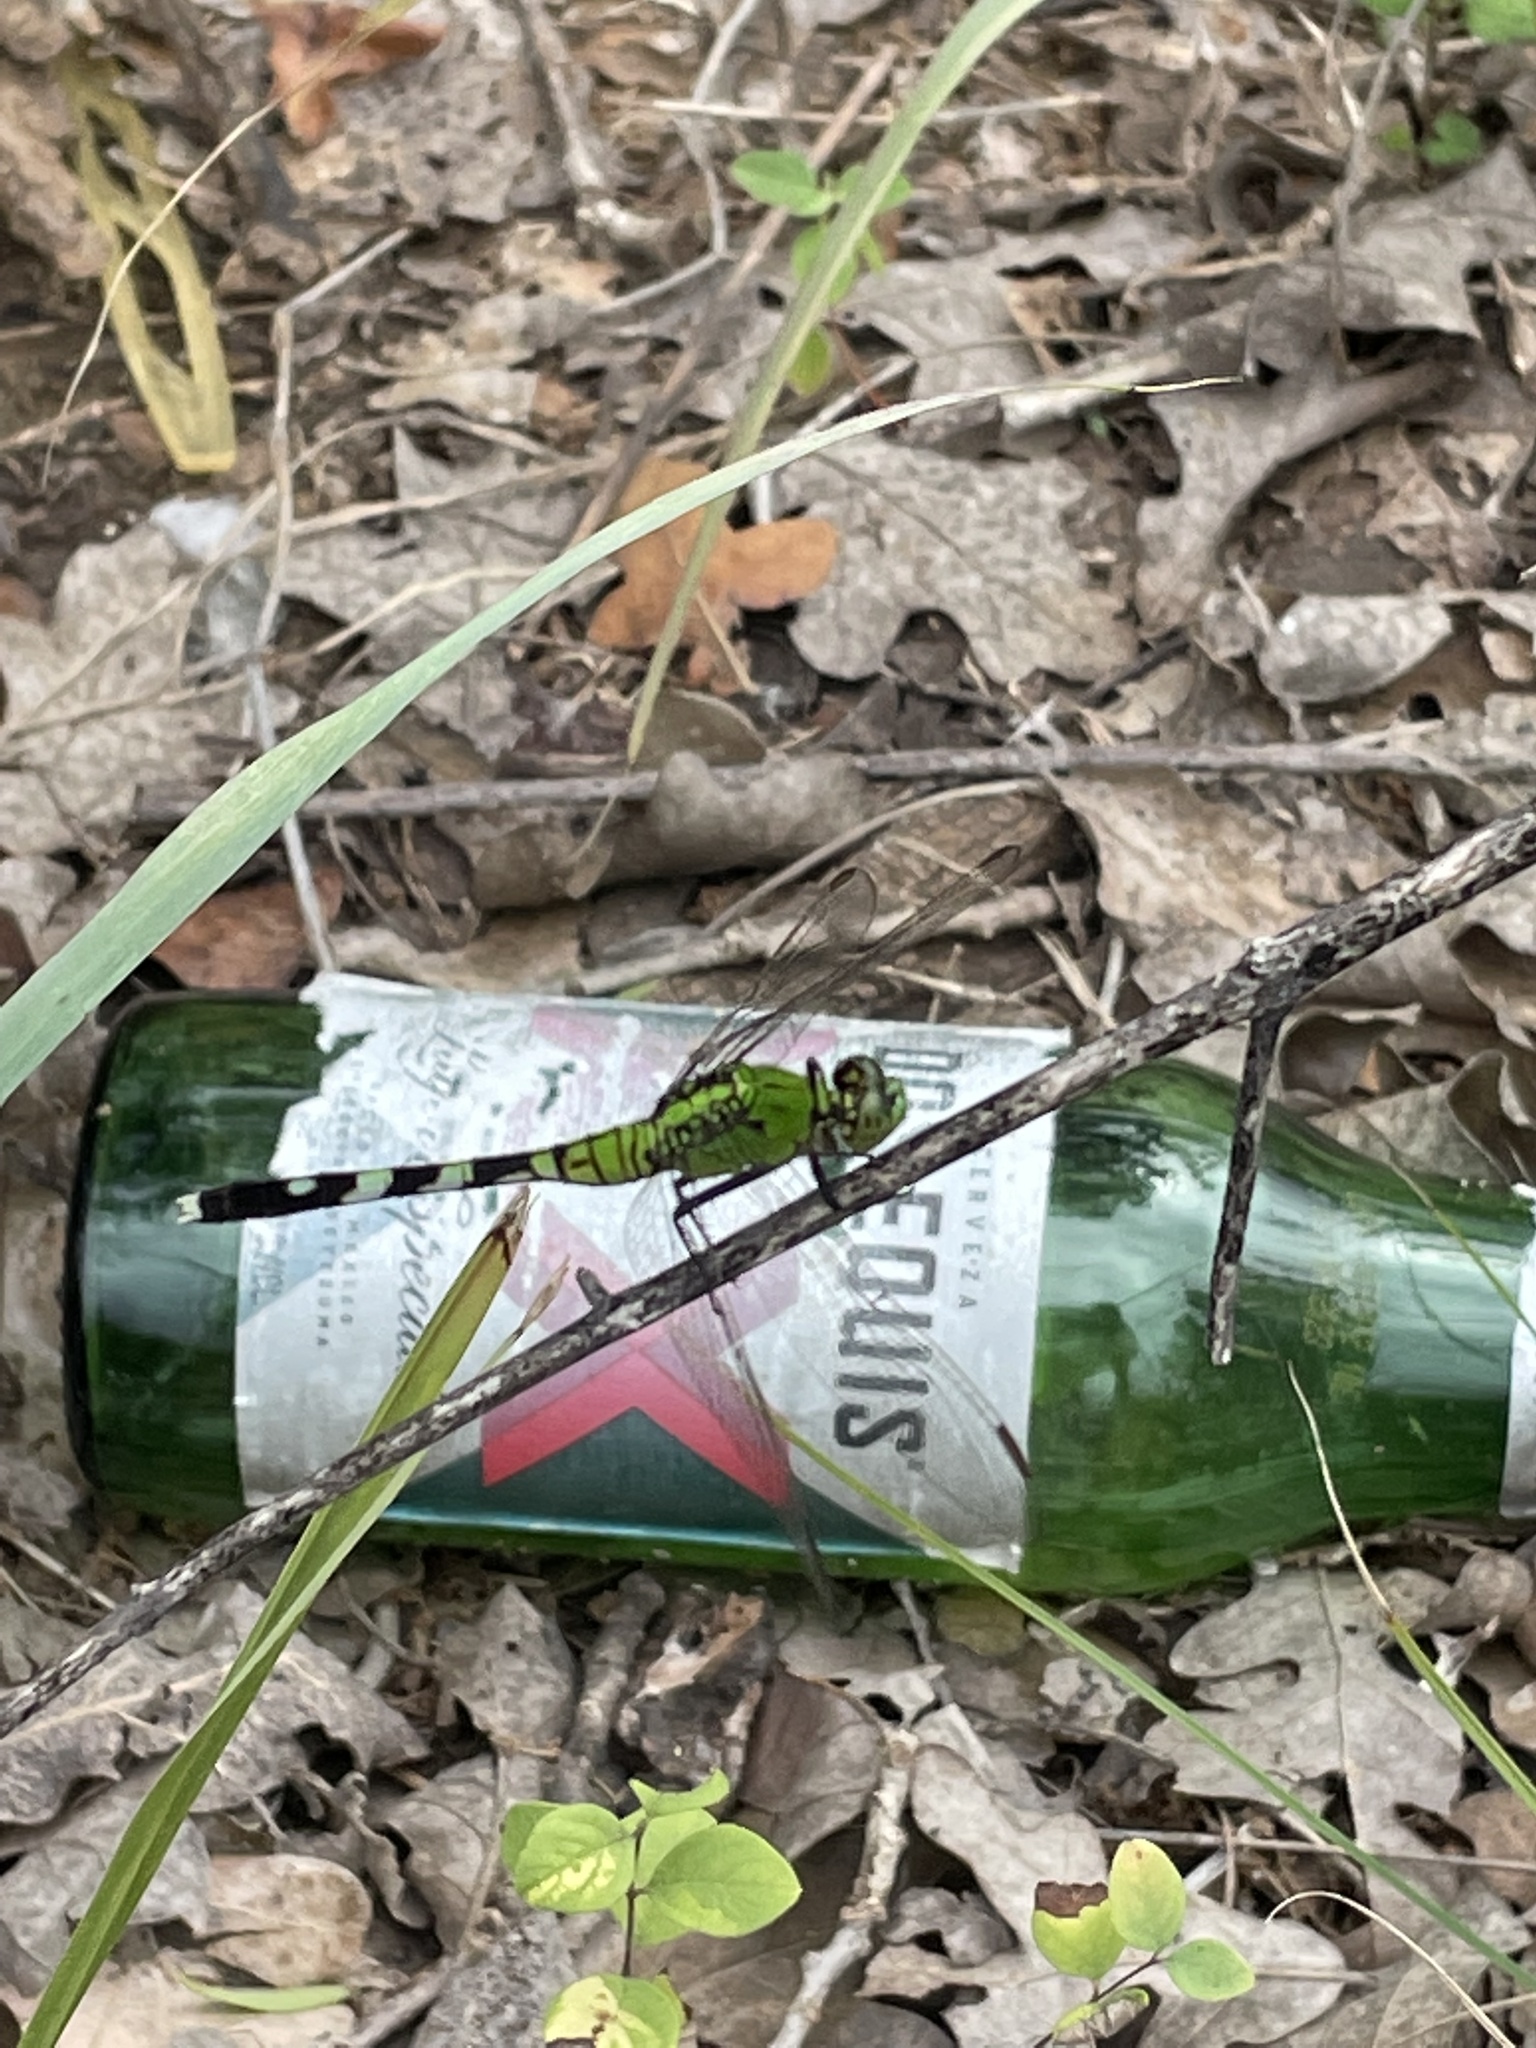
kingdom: Animalia
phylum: Arthropoda
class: Insecta
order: Odonata
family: Libellulidae
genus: Erythemis
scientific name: Erythemis simplicicollis
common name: Eastern pondhawk
